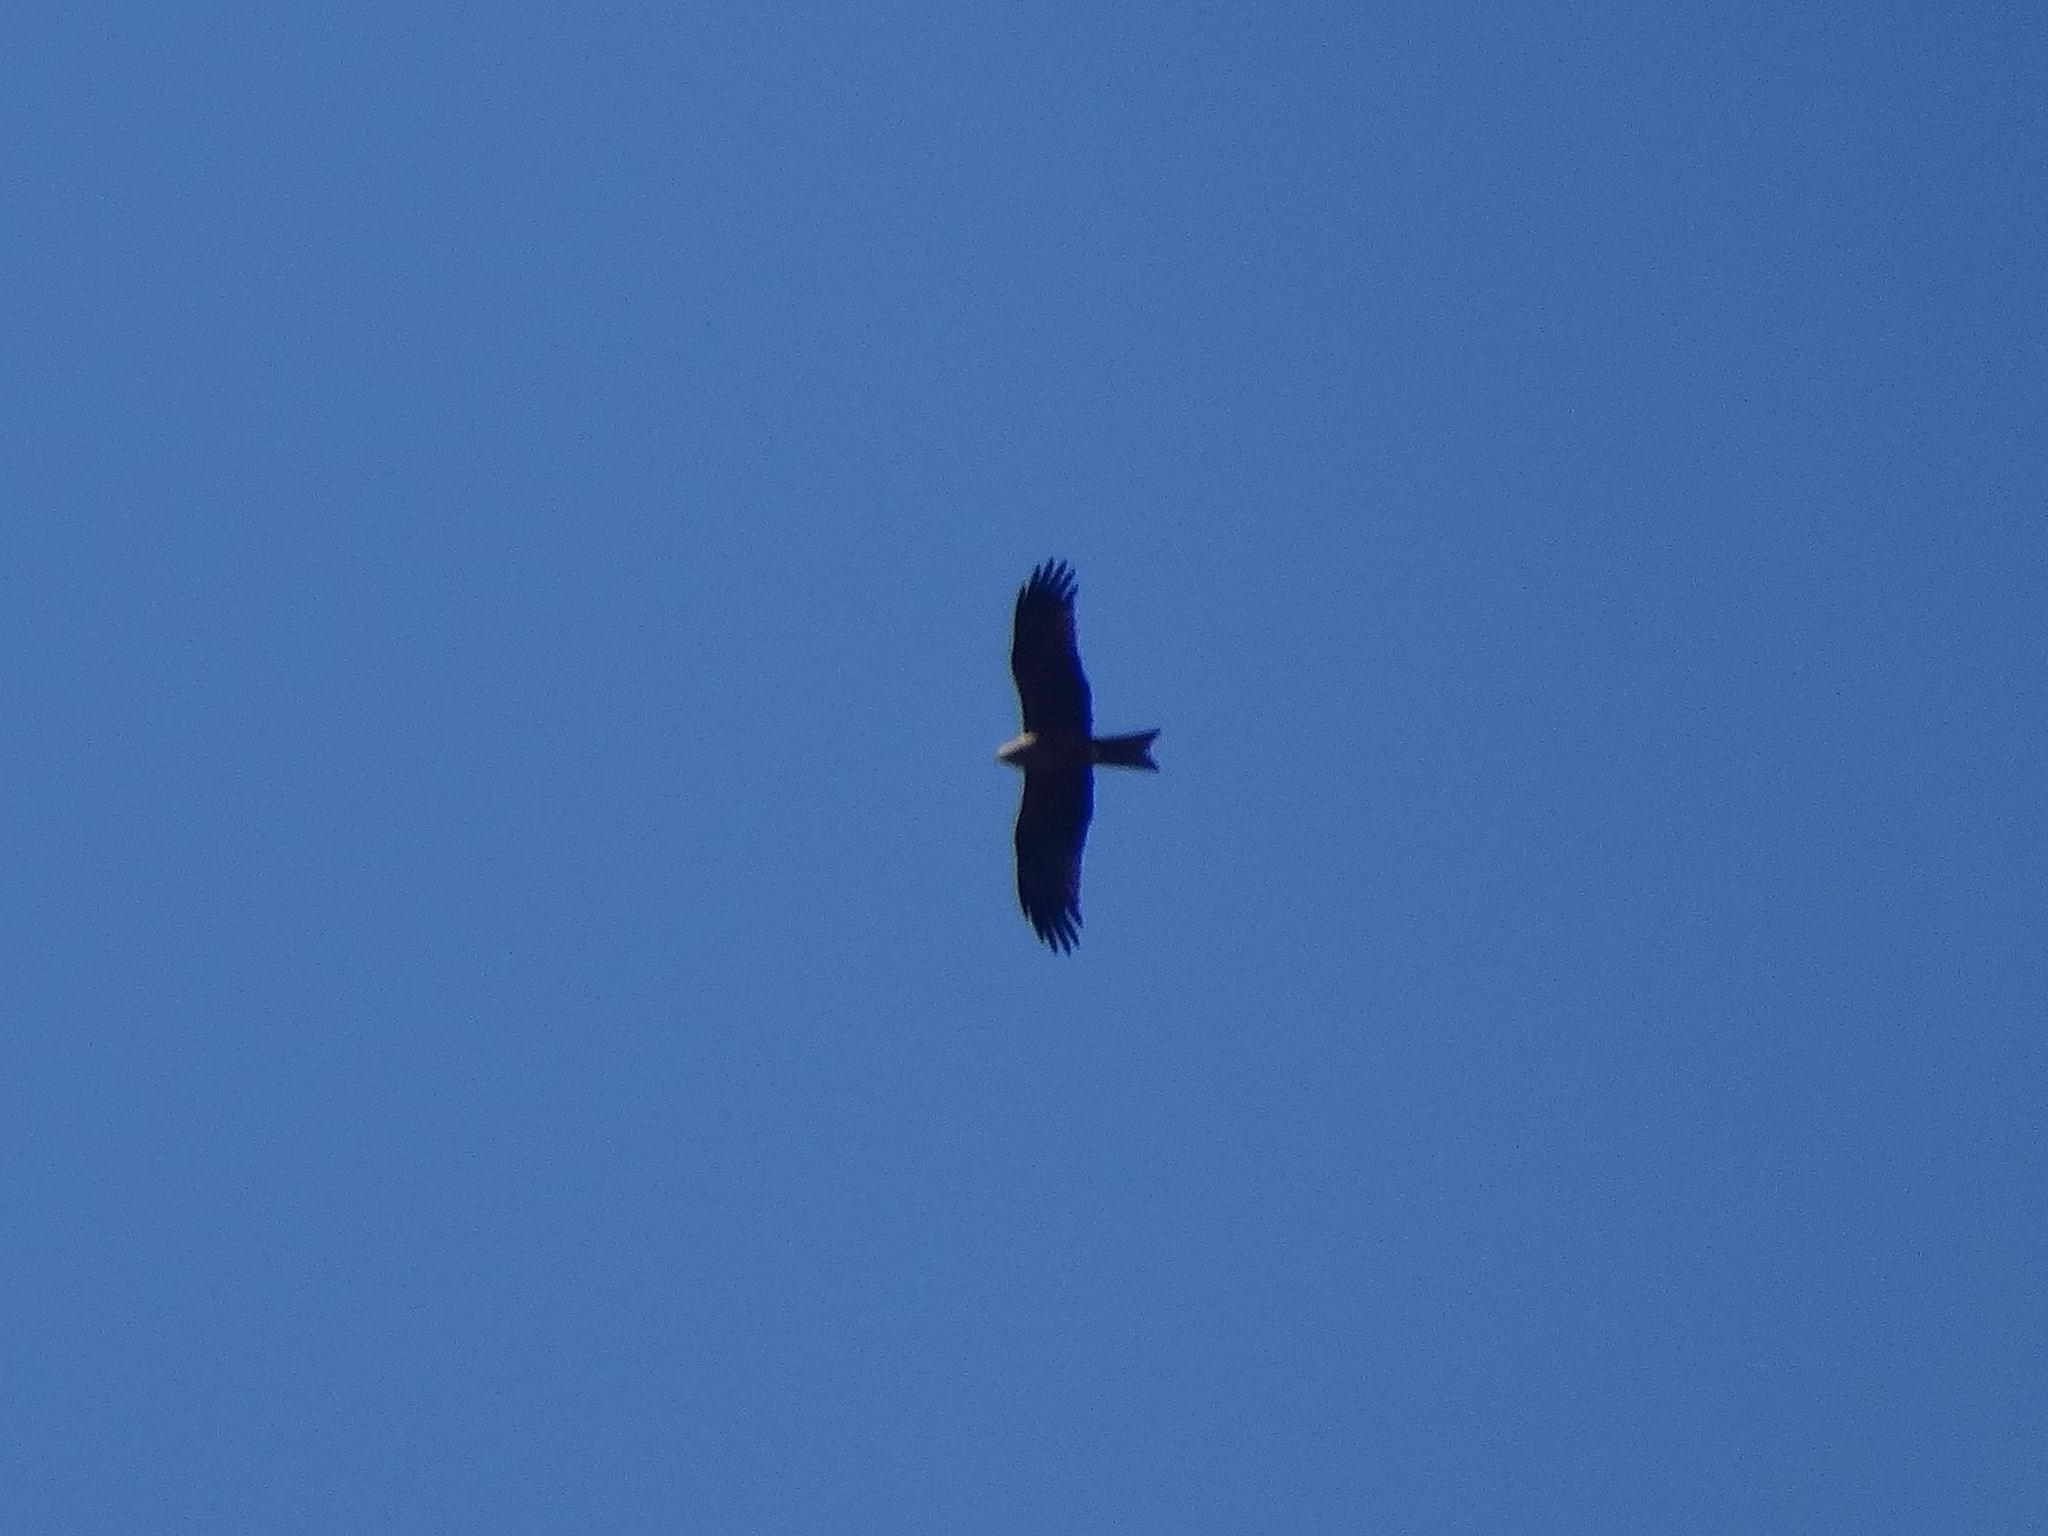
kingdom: Animalia
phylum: Chordata
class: Aves
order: Accipitriformes
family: Accipitridae
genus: Milvus
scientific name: Milvus migrans
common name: Black kite
